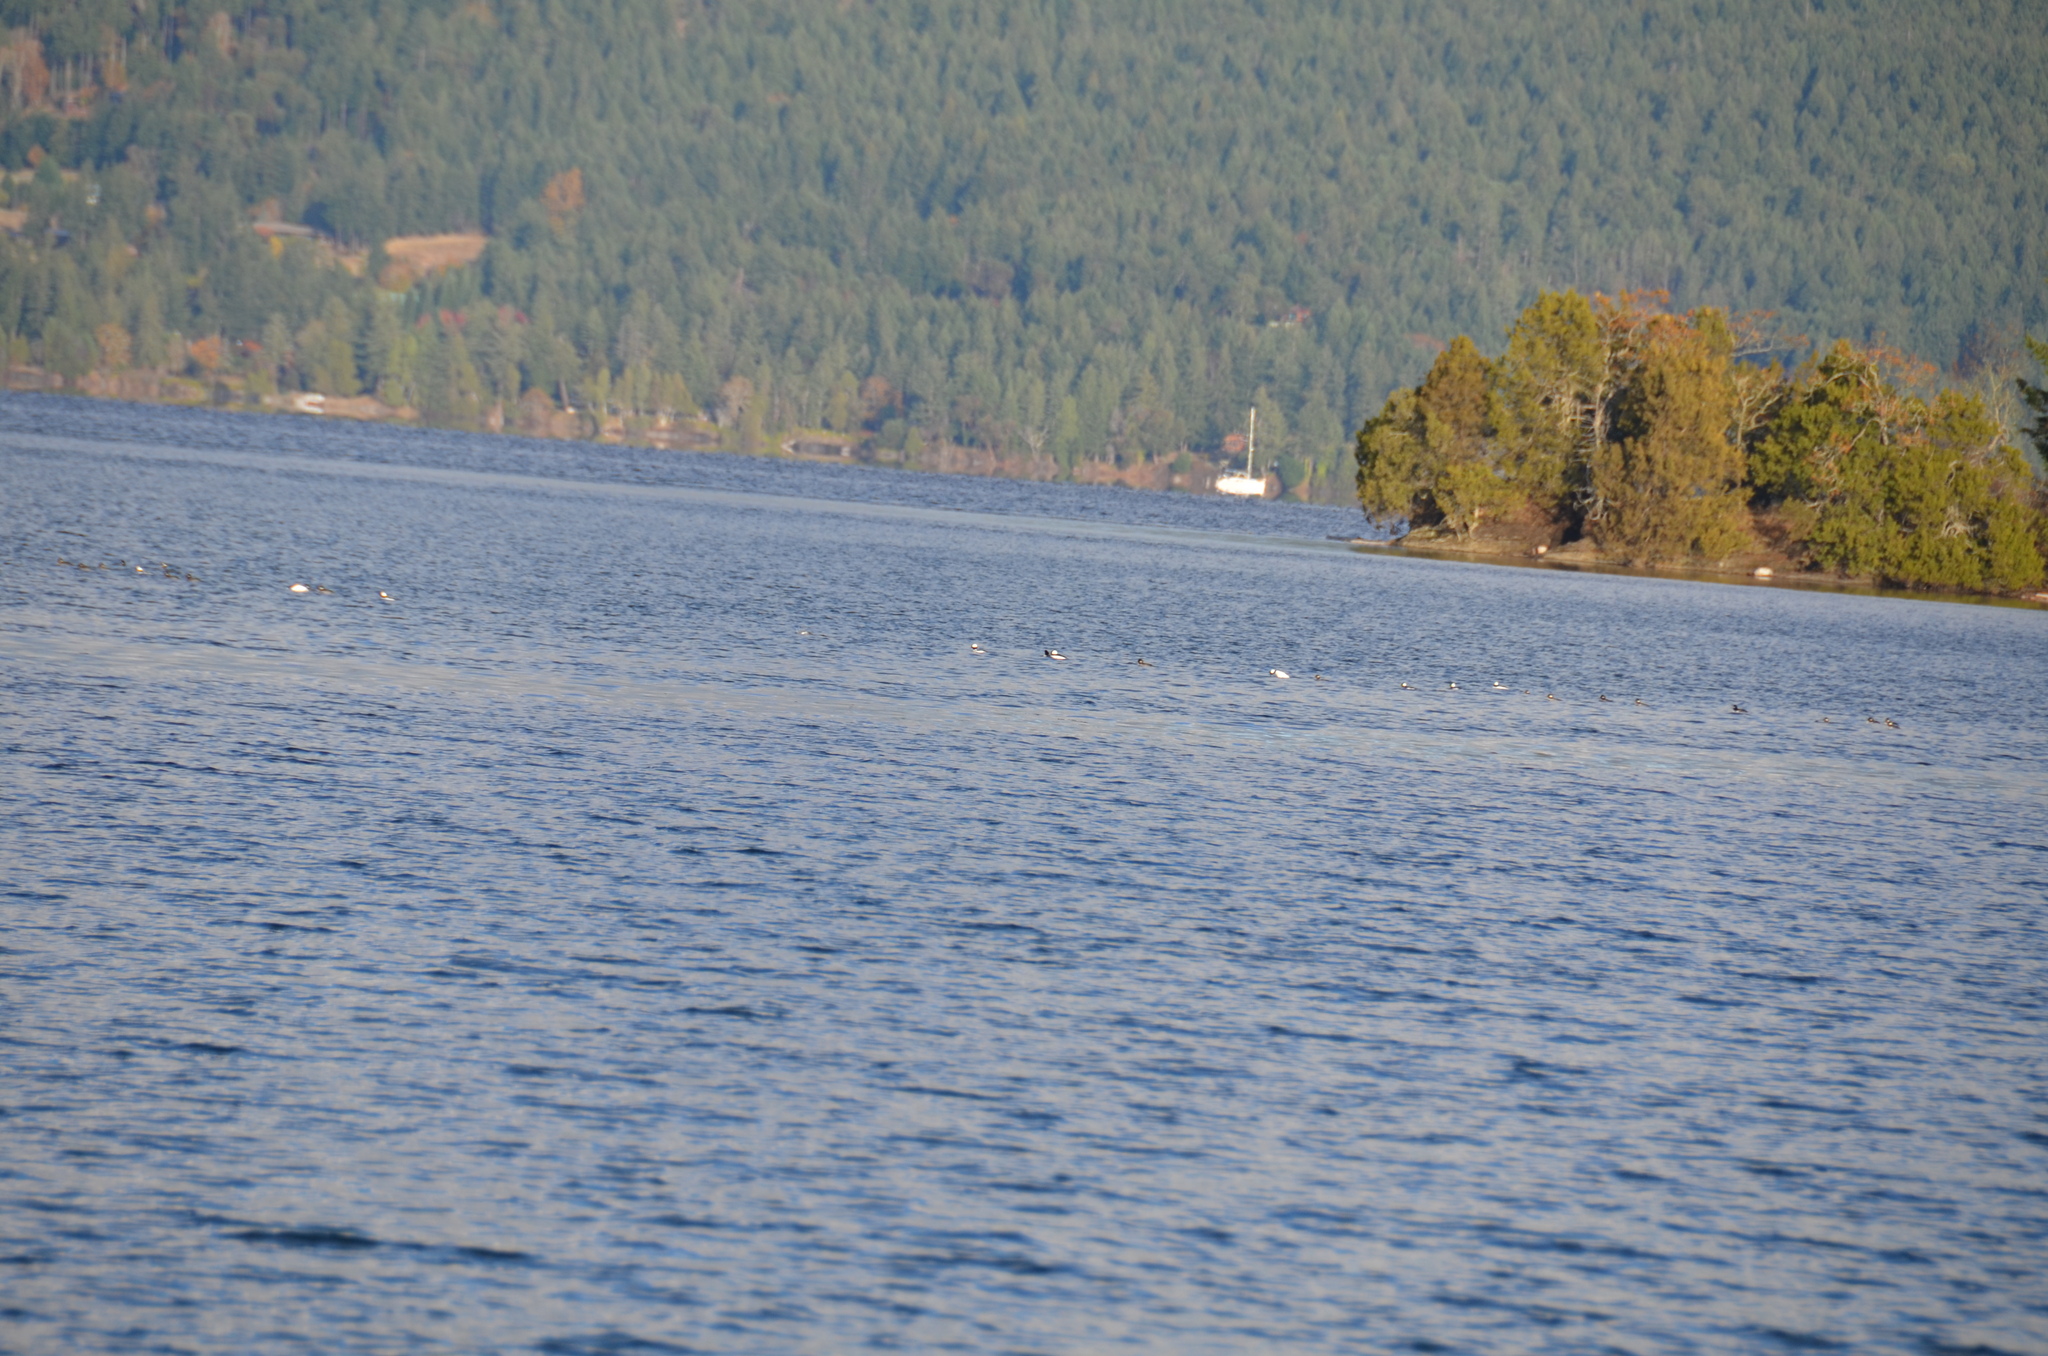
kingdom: Animalia
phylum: Chordata
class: Aves
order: Anseriformes
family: Anatidae
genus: Bucephala
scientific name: Bucephala albeola
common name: Bufflehead
